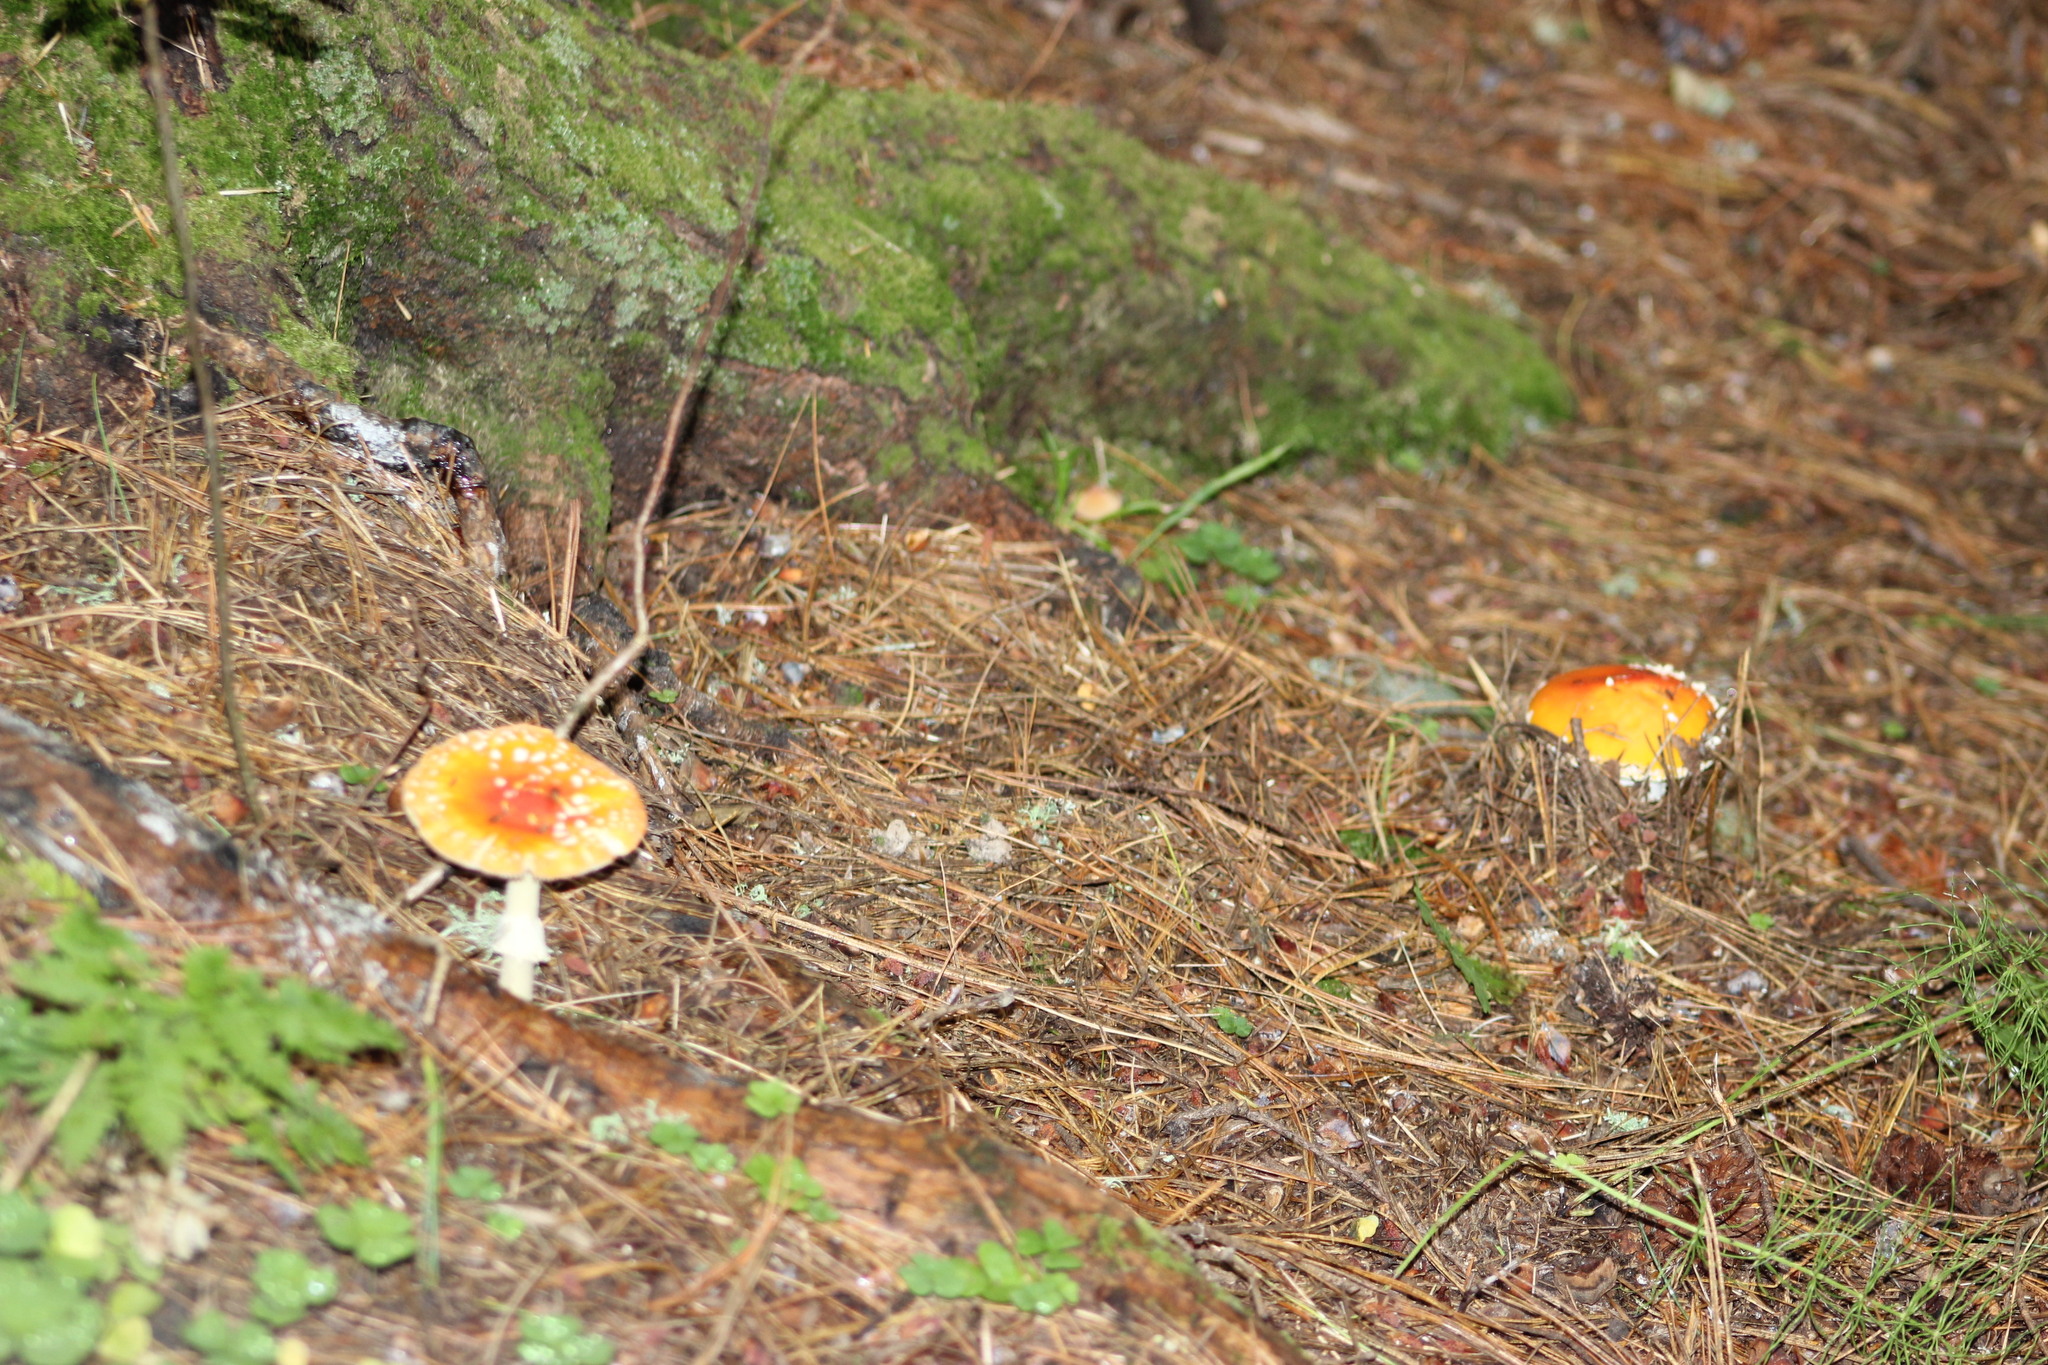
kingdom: Fungi
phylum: Basidiomycota
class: Agaricomycetes
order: Agaricales
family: Amanitaceae
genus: Amanita
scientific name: Amanita muscaria
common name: Fly agaric
